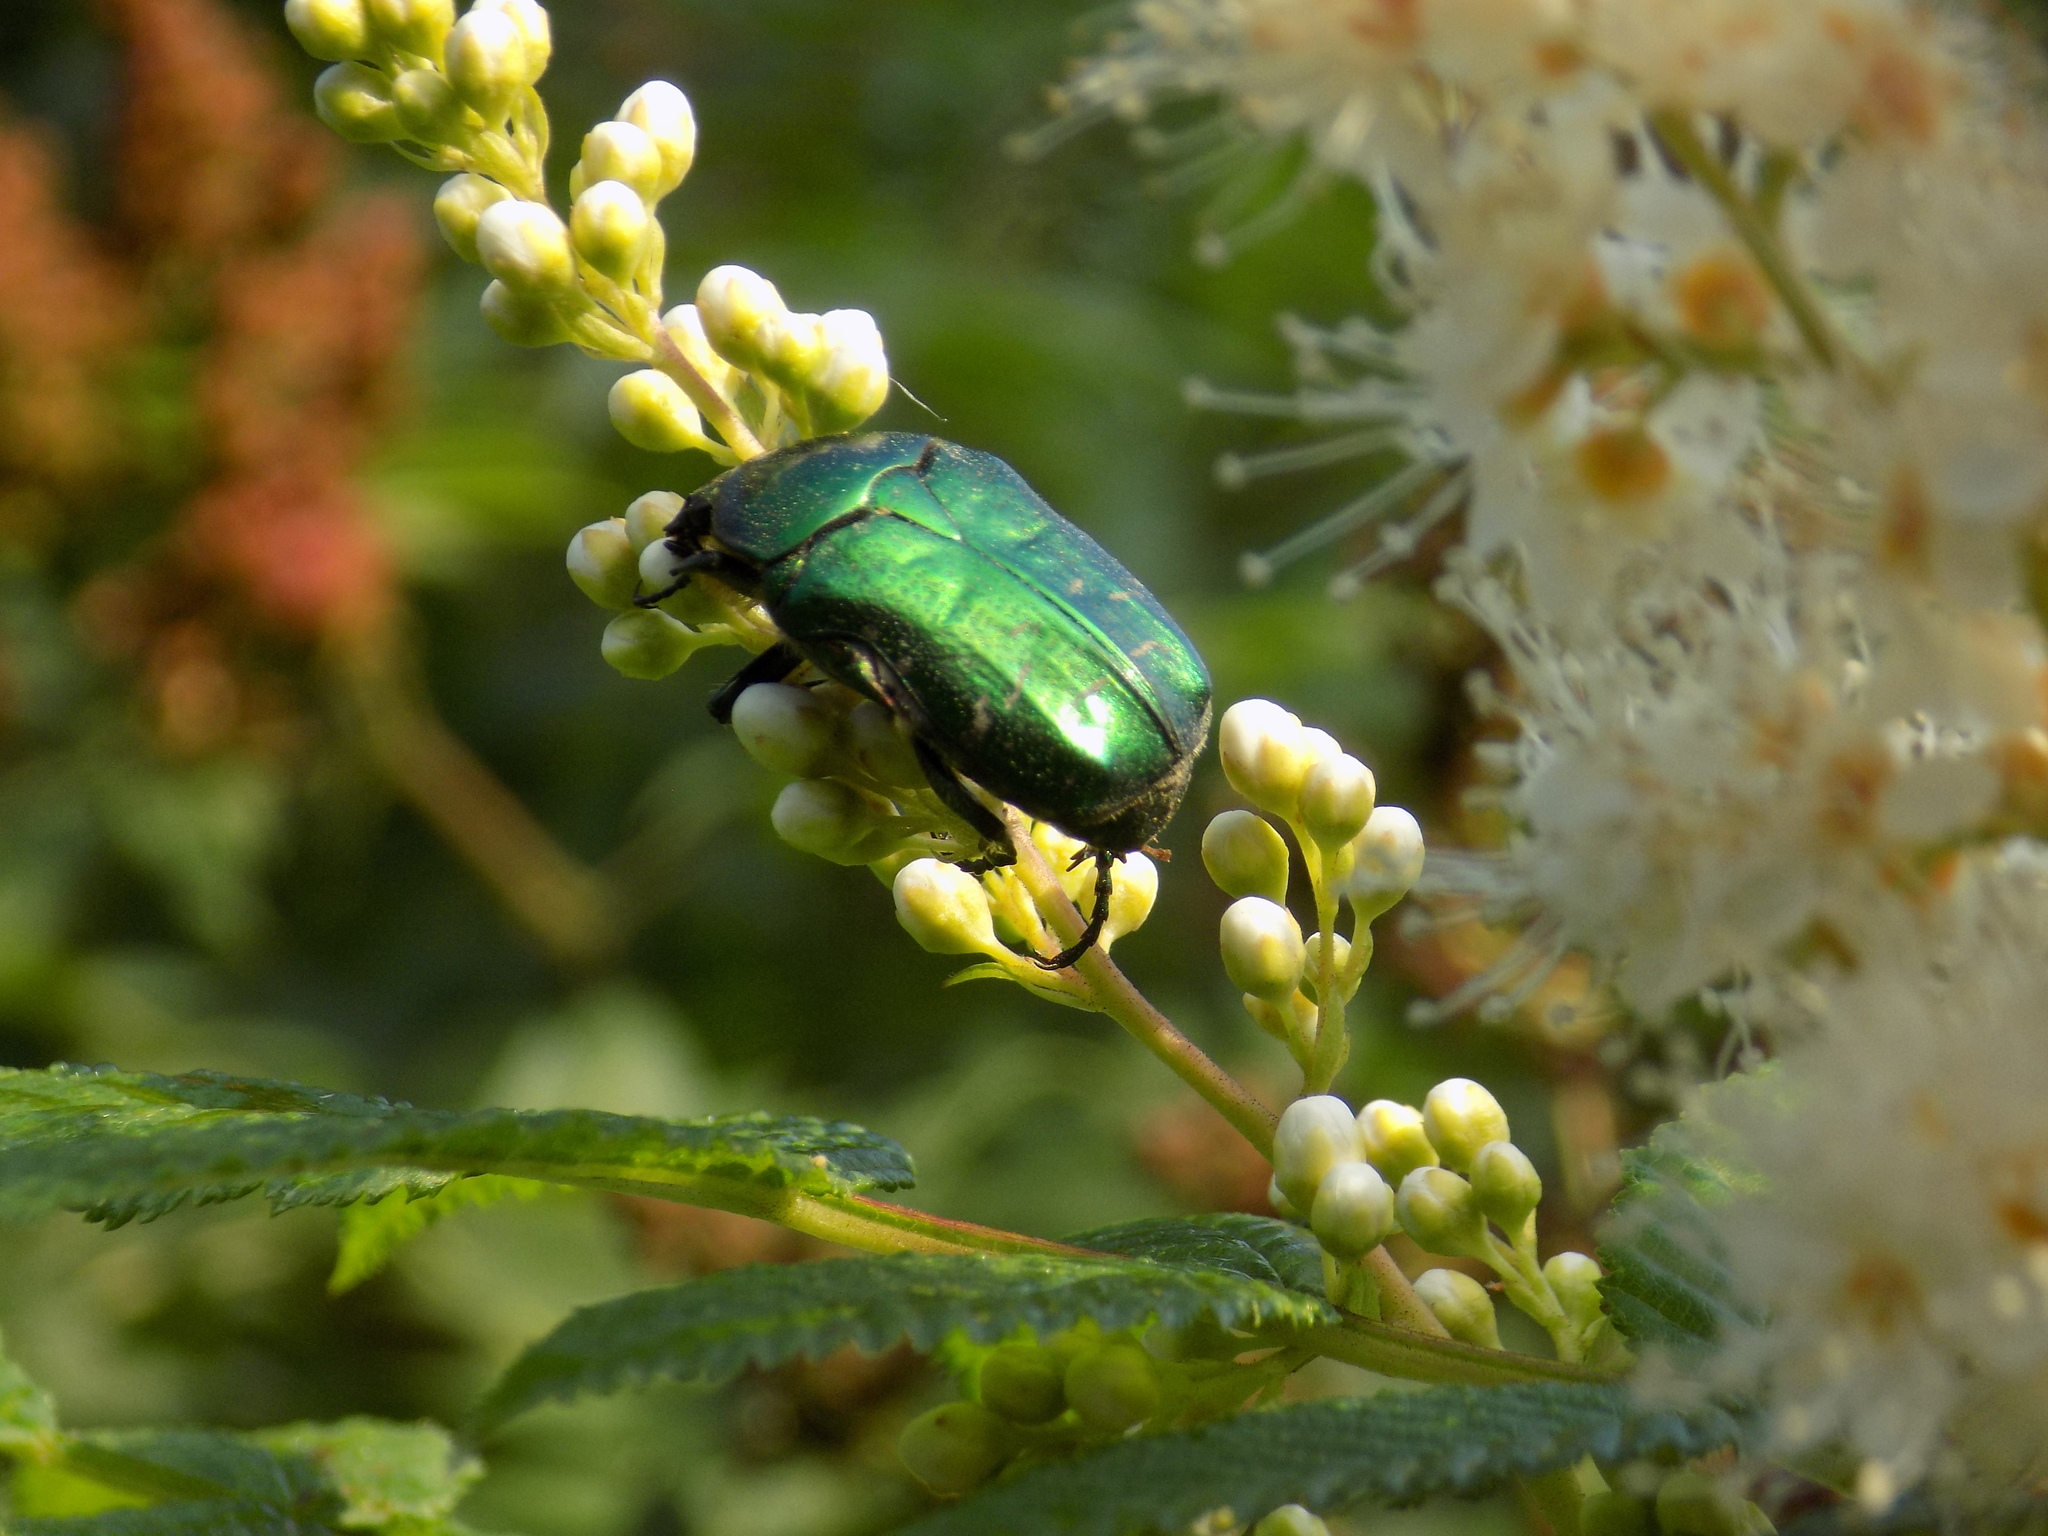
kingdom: Animalia
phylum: Arthropoda
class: Insecta
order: Coleoptera
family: Scarabaeidae
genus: Cetonia
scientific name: Cetonia aurata
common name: Rose chafer
